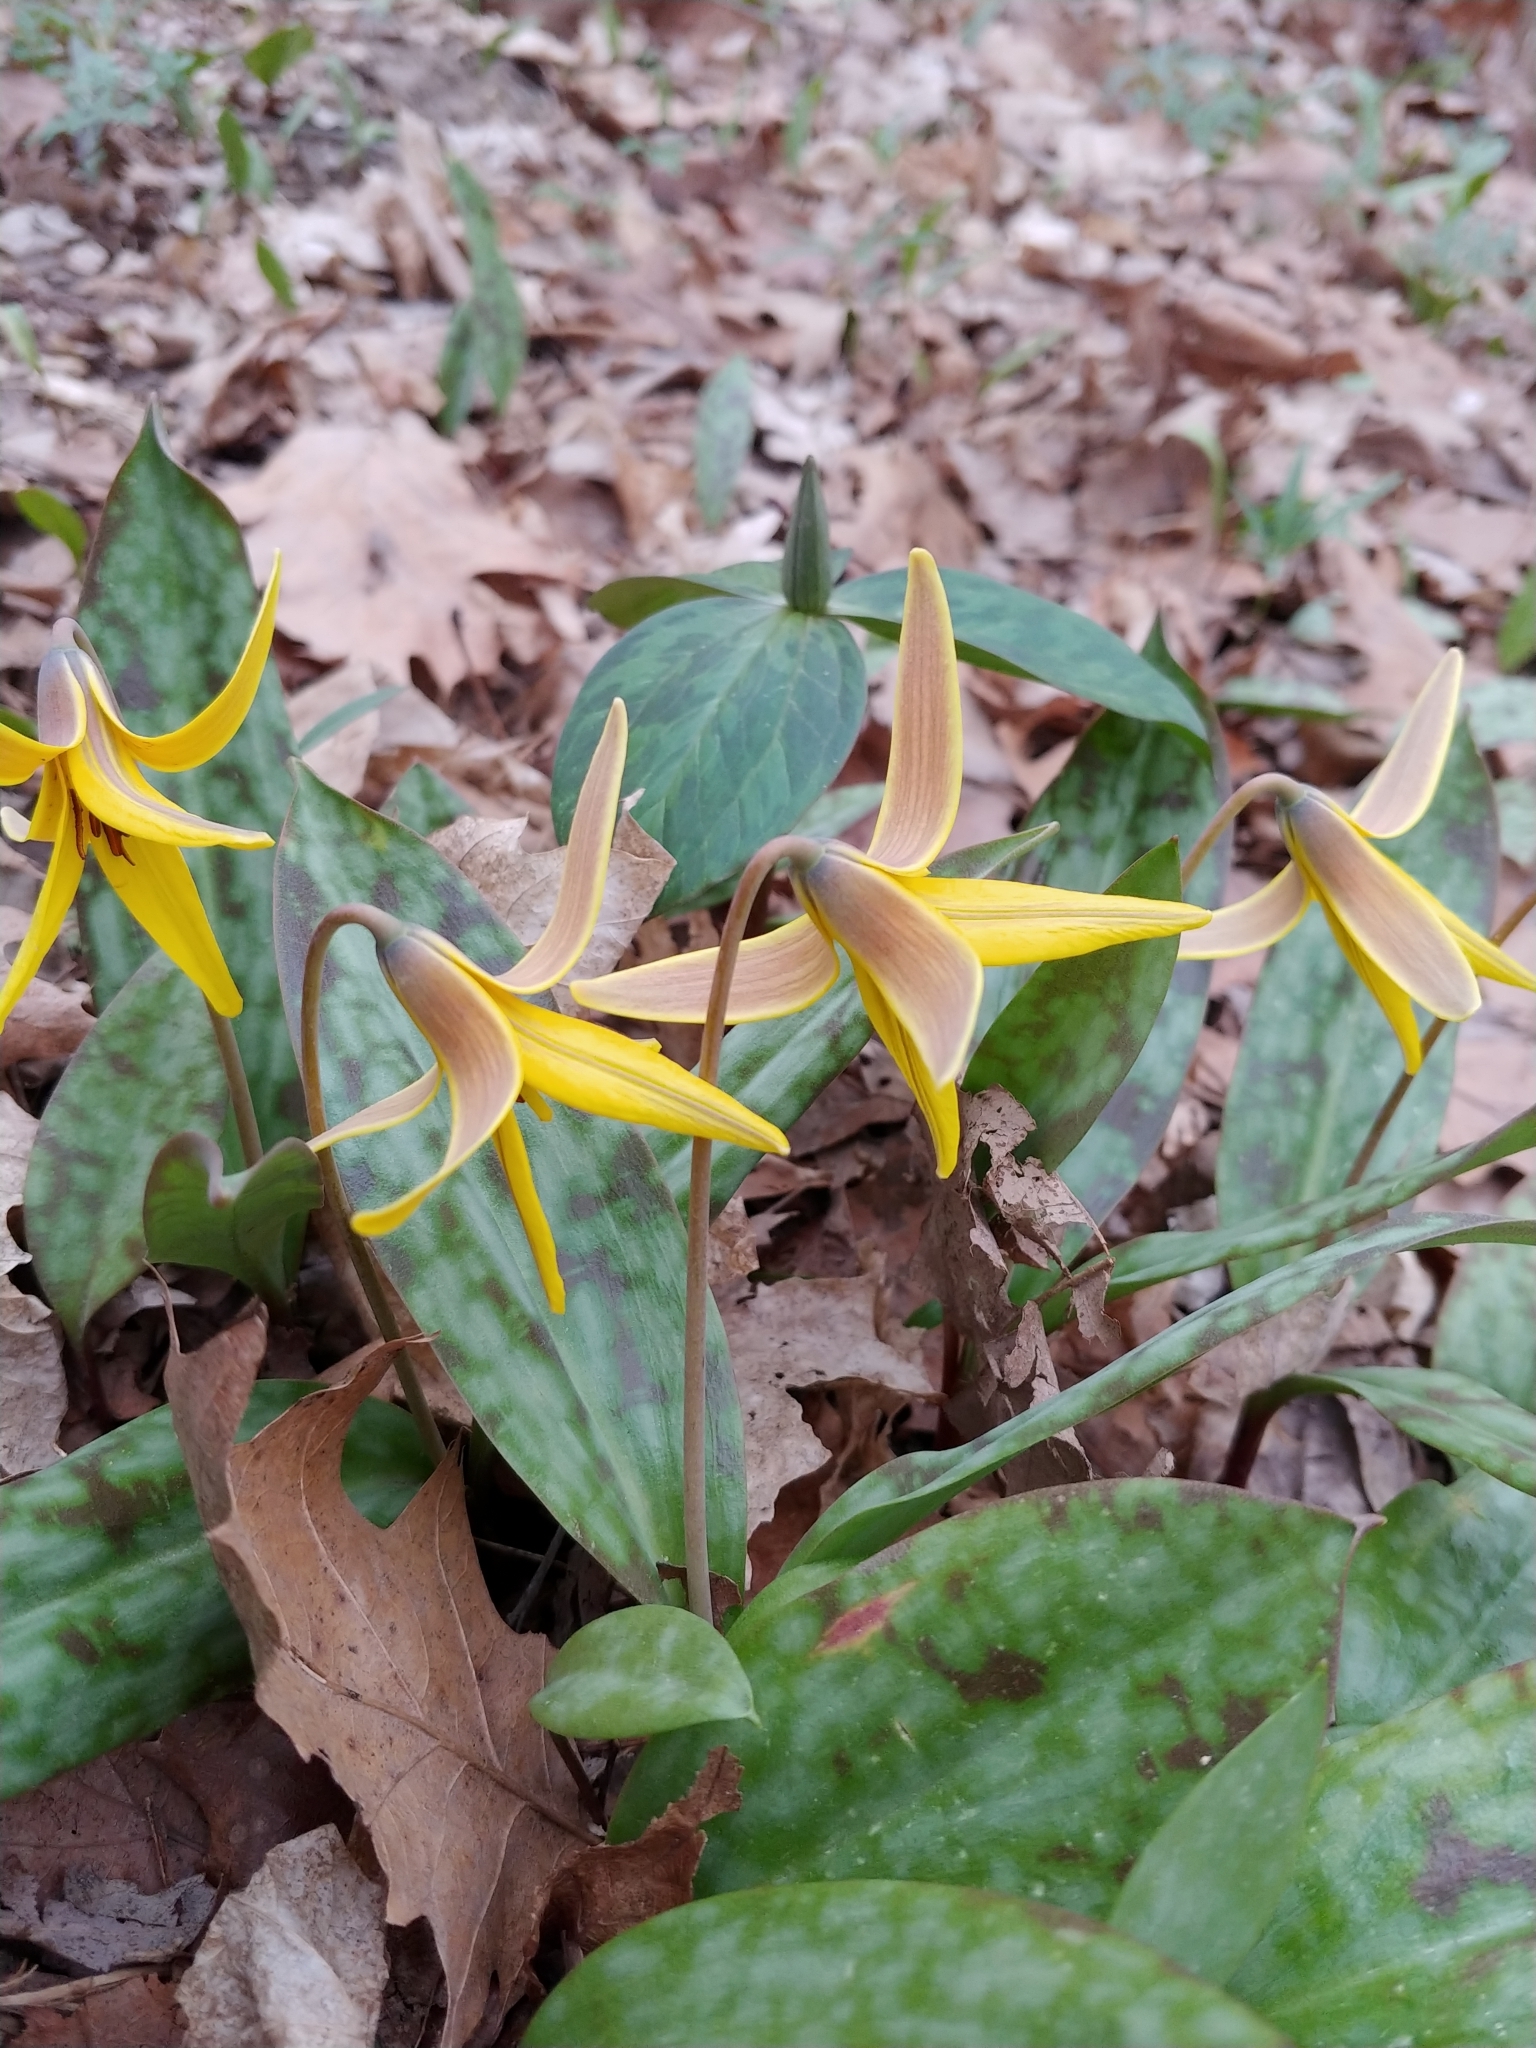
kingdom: Plantae
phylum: Tracheophyta
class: Liliopsida
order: Liliales
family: Liliaceae
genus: Erythronium
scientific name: Erythronium americanum
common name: Yellow adder's-tongue
